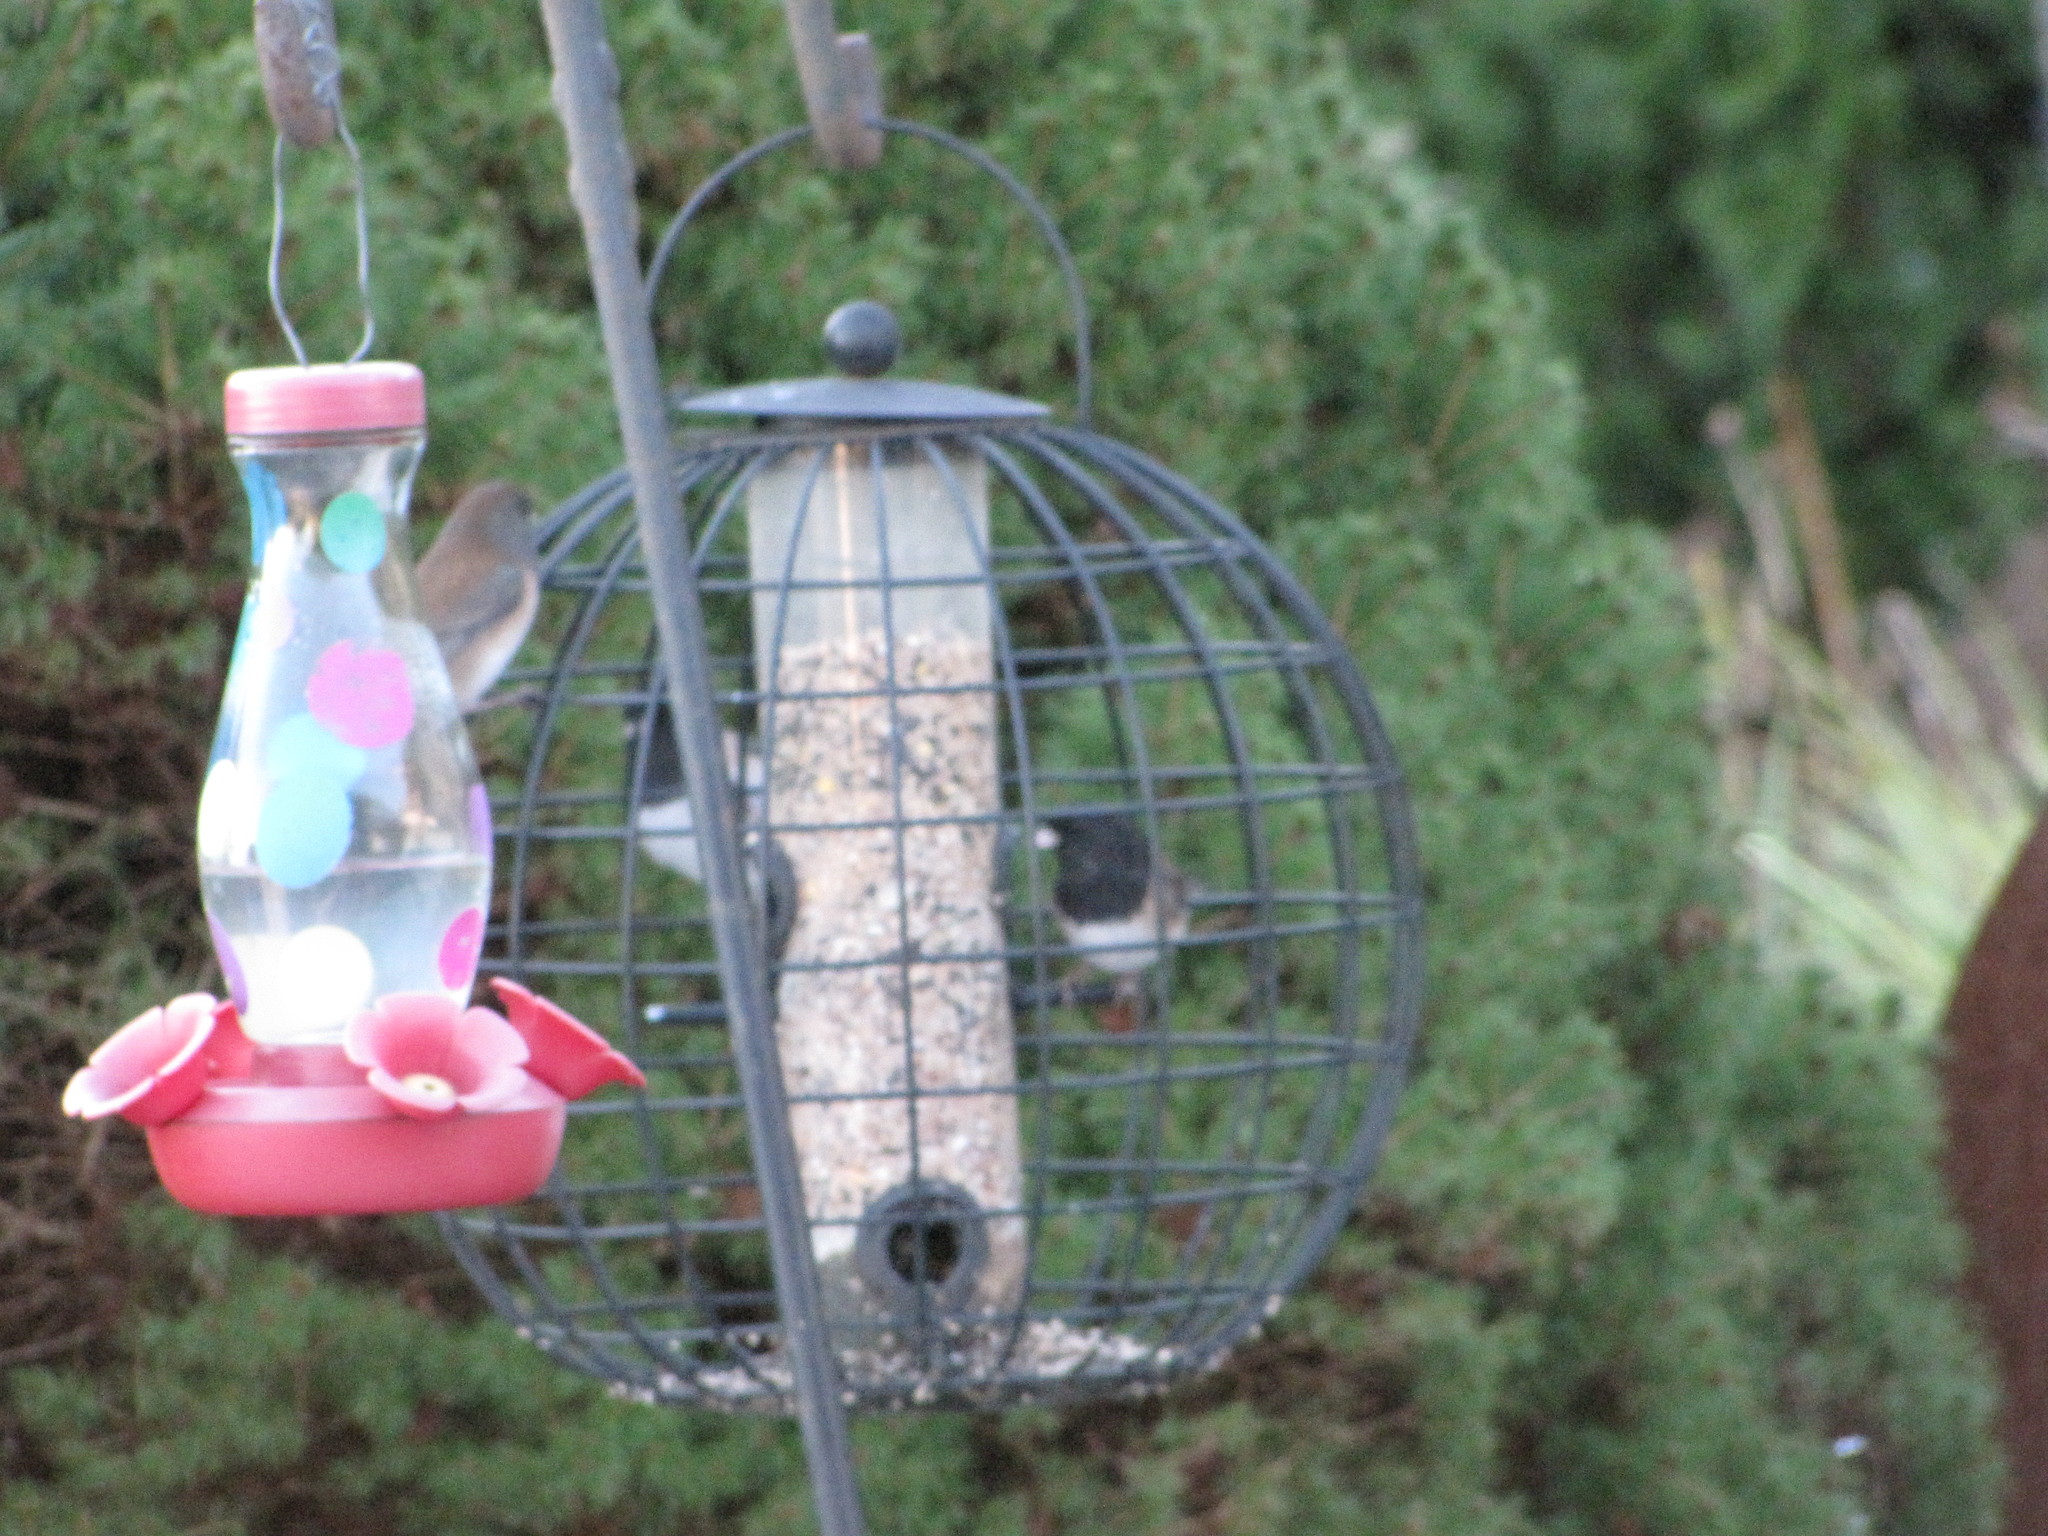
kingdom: Animalia
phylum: Chordata
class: Aves
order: Passeriformes
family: Passerellidae
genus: Junco
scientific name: Junco hyemalis
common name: Dark-eyed junco
